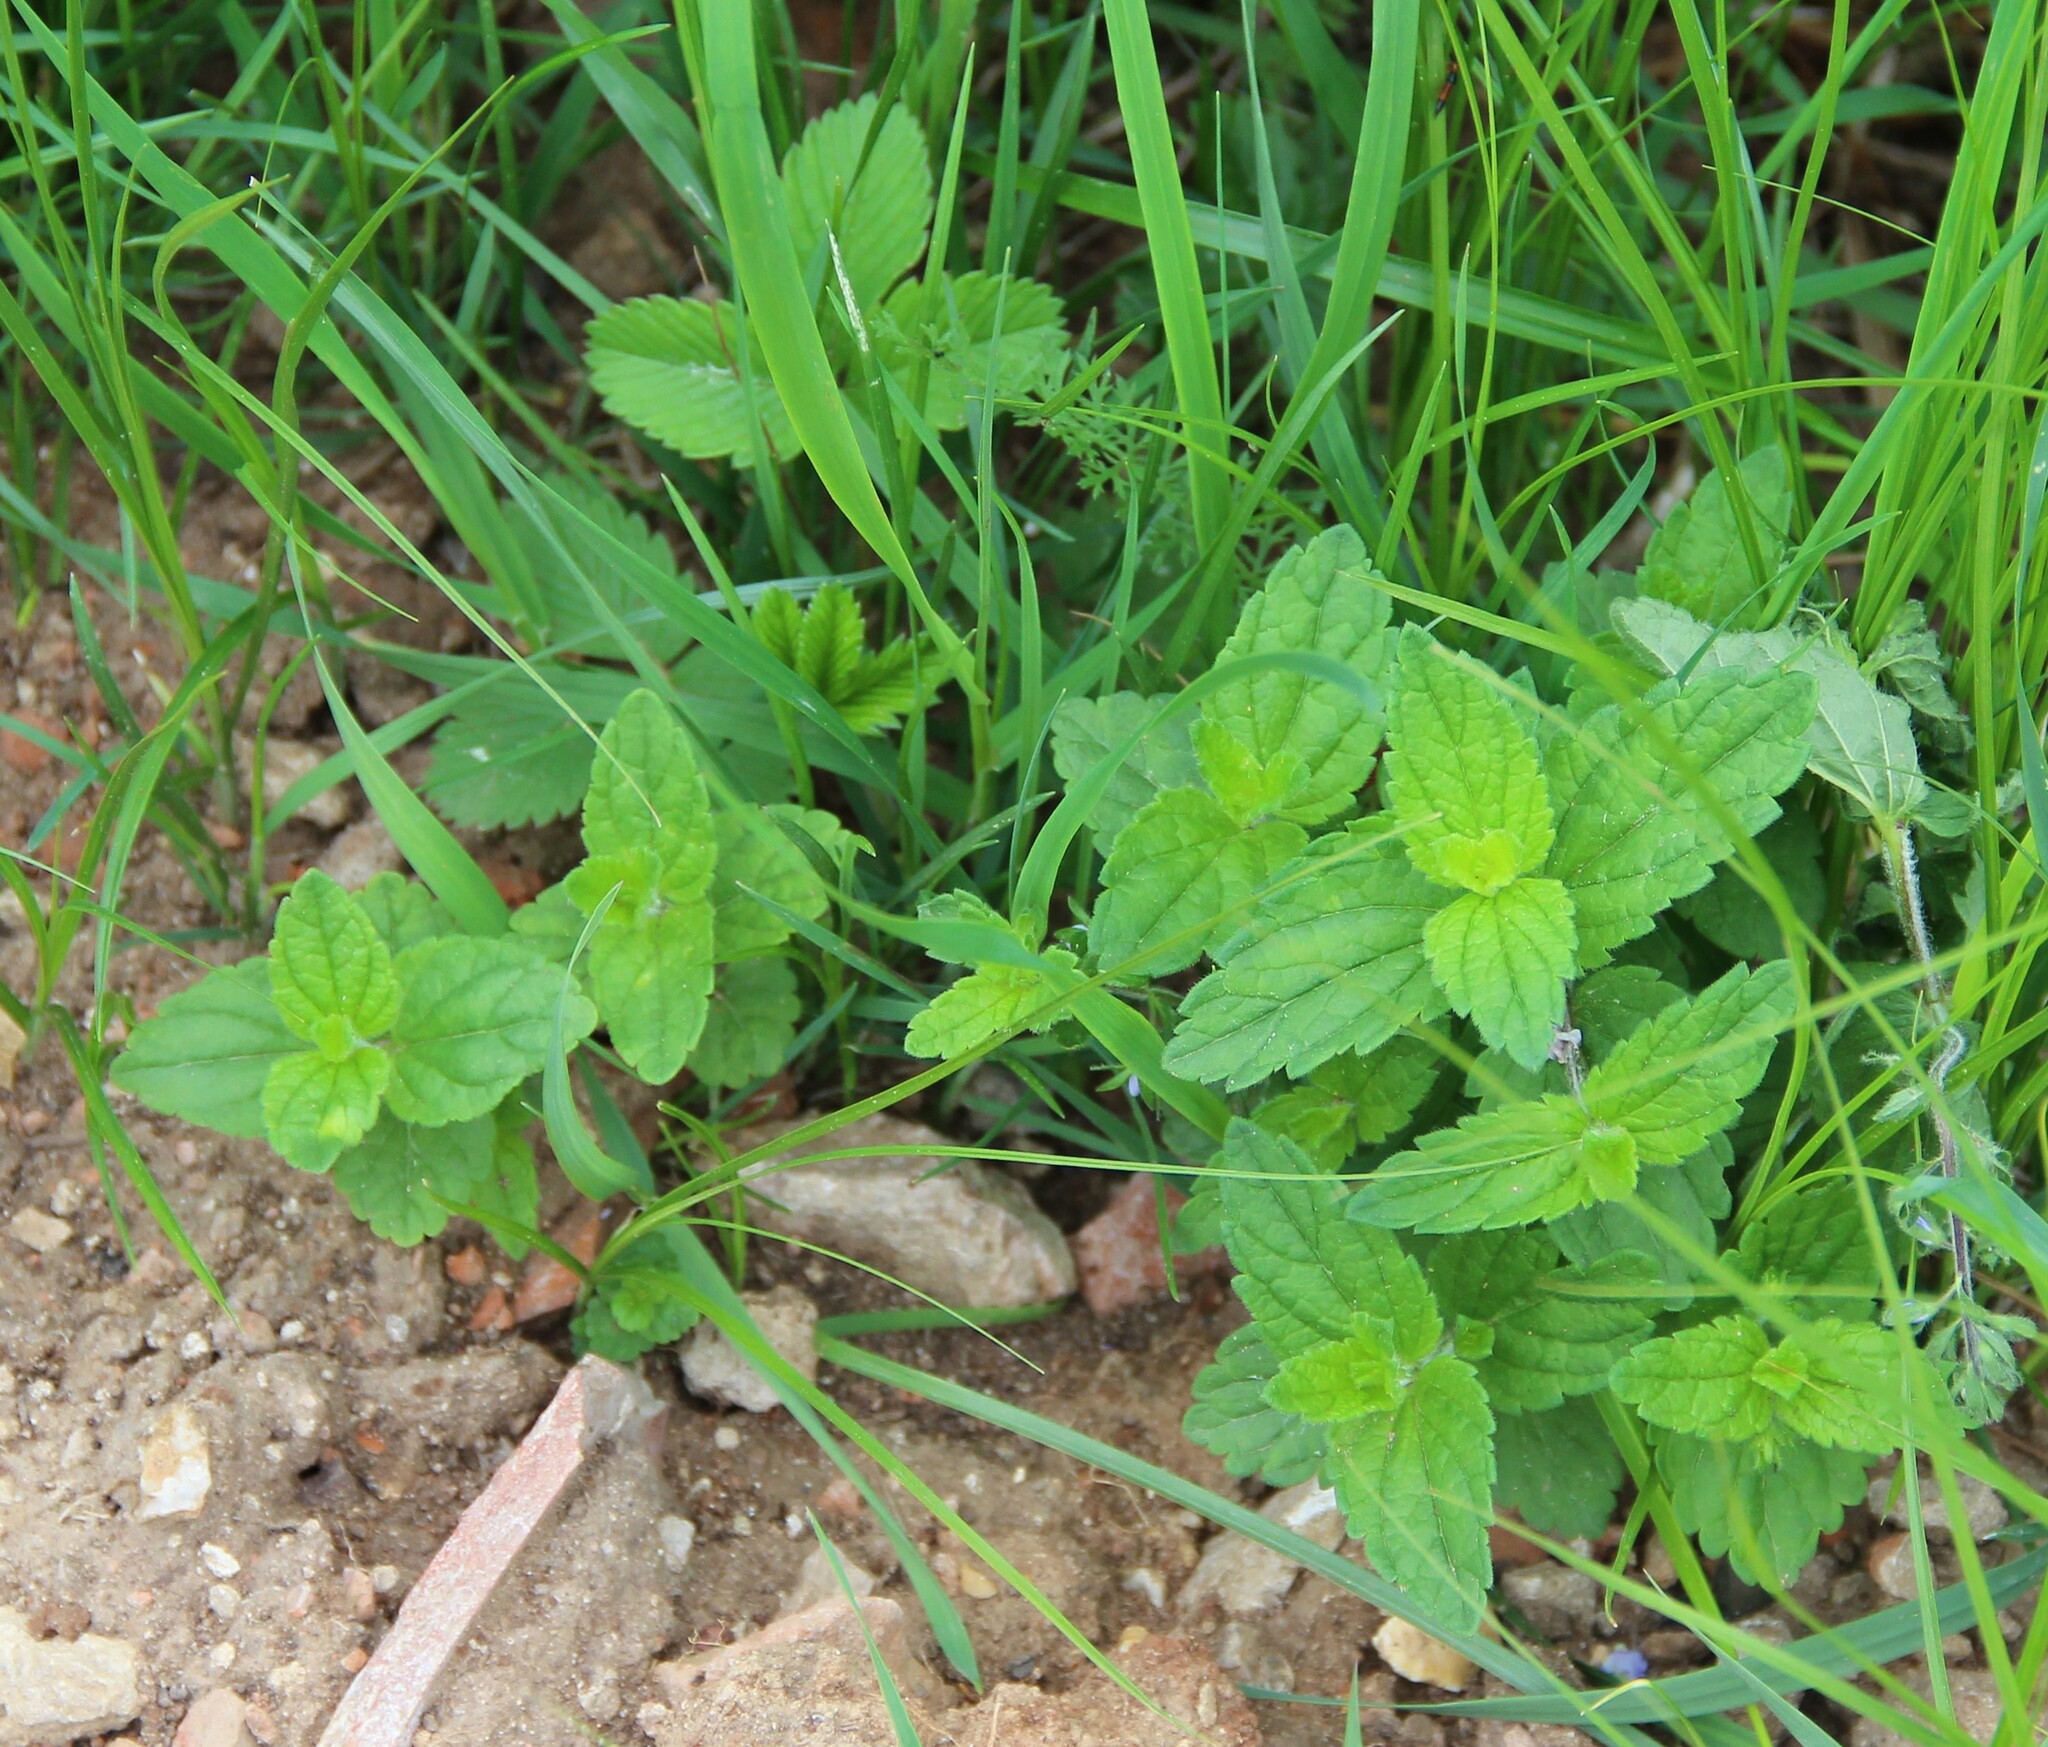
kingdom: Plantae
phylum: Tracheophyta
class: Magnoliopsida
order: Lamiales
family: Plantaginaceae
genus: Veronica
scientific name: Veronica chamaedrys
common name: Germander speedwell
